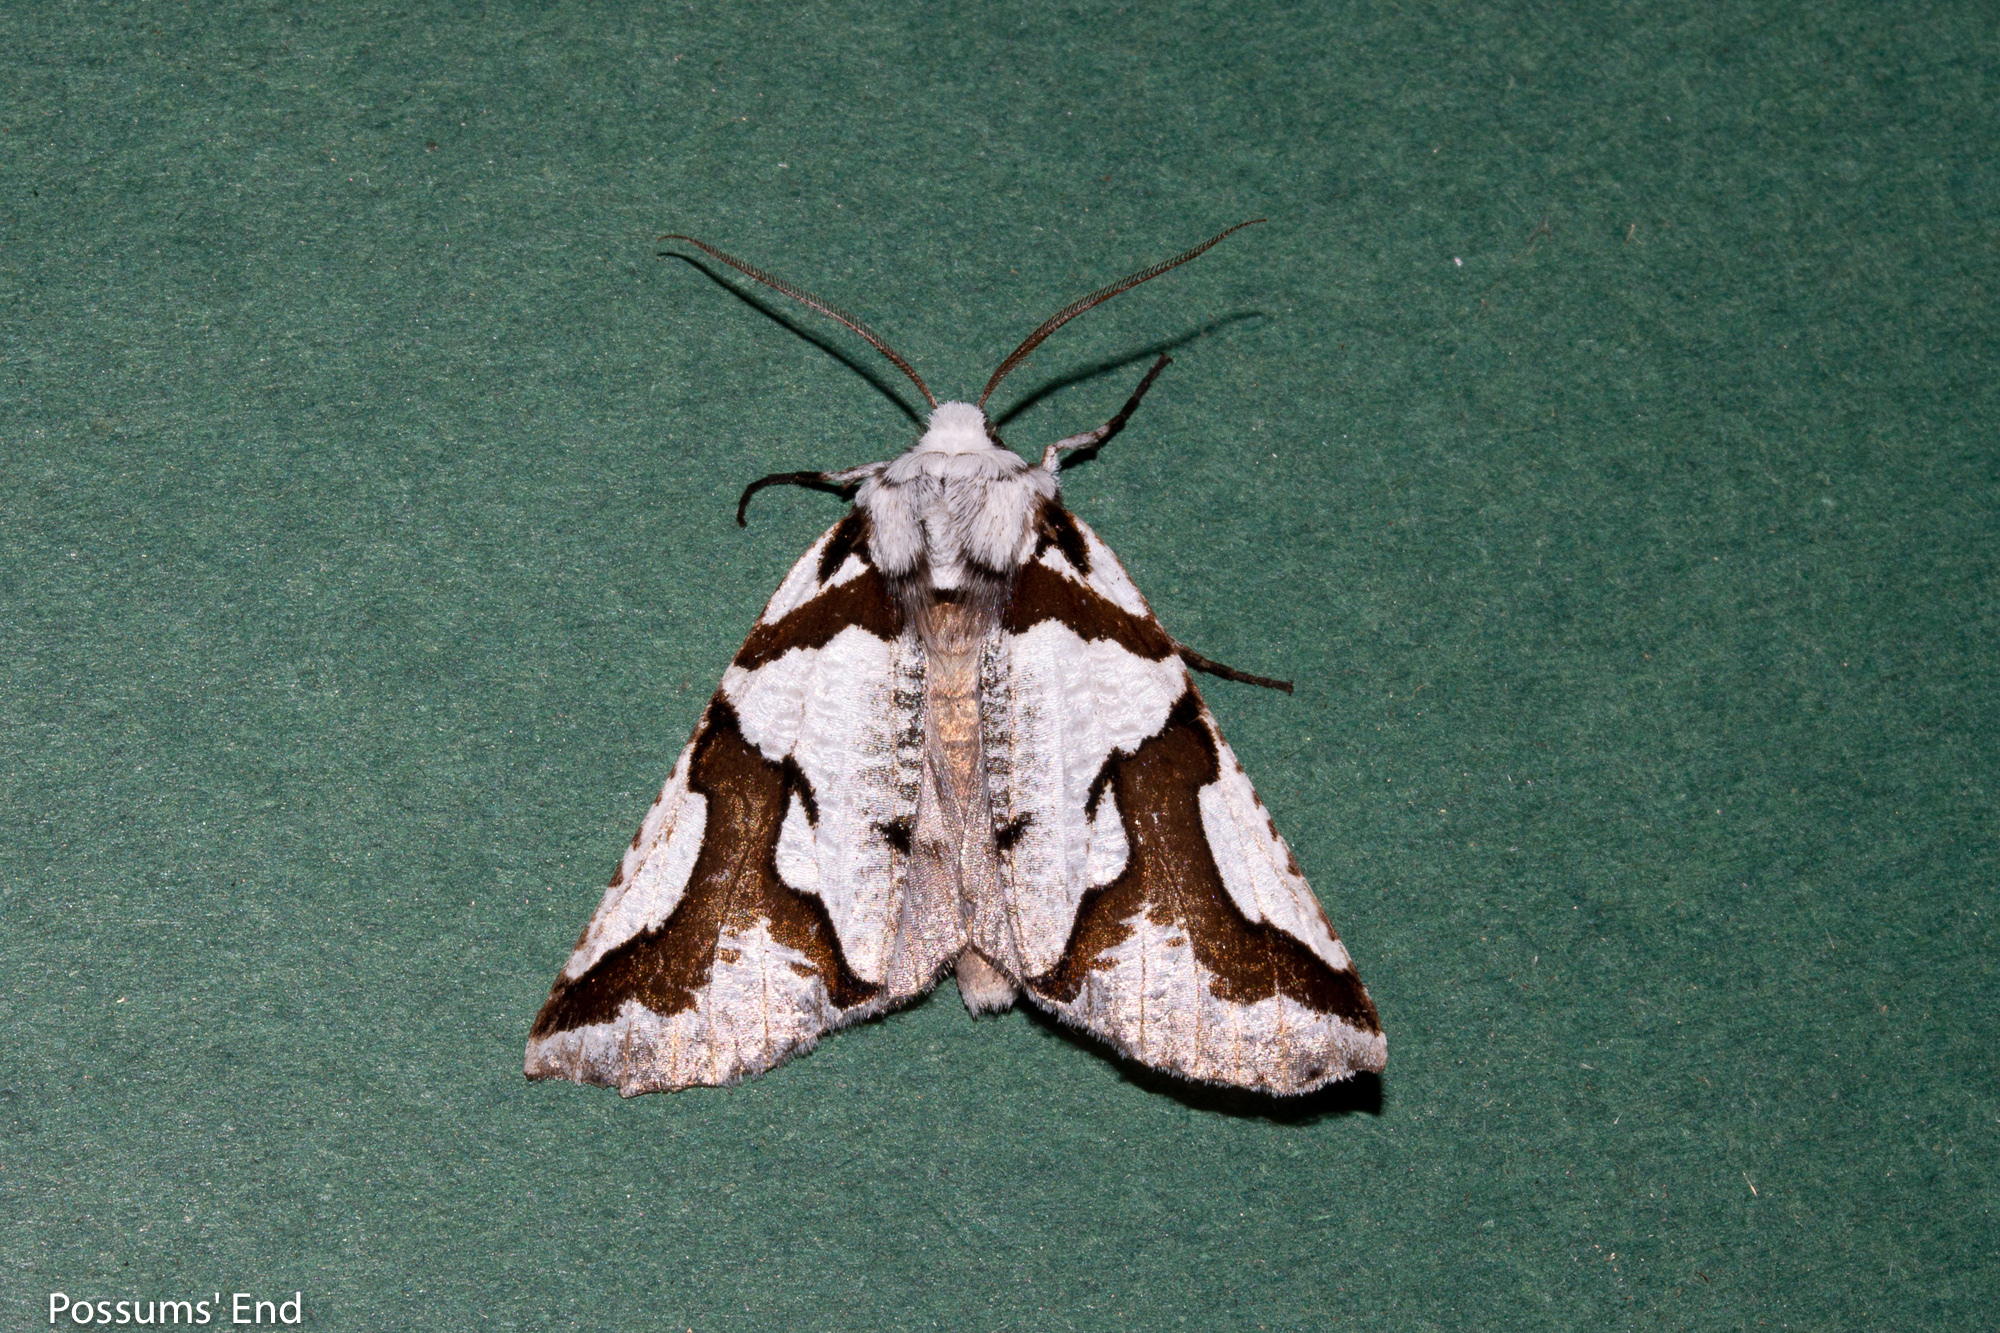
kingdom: Animalia
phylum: Arthropoda
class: Insecta
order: Lepidoptera
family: Geometridae
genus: Declana
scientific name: Declana
